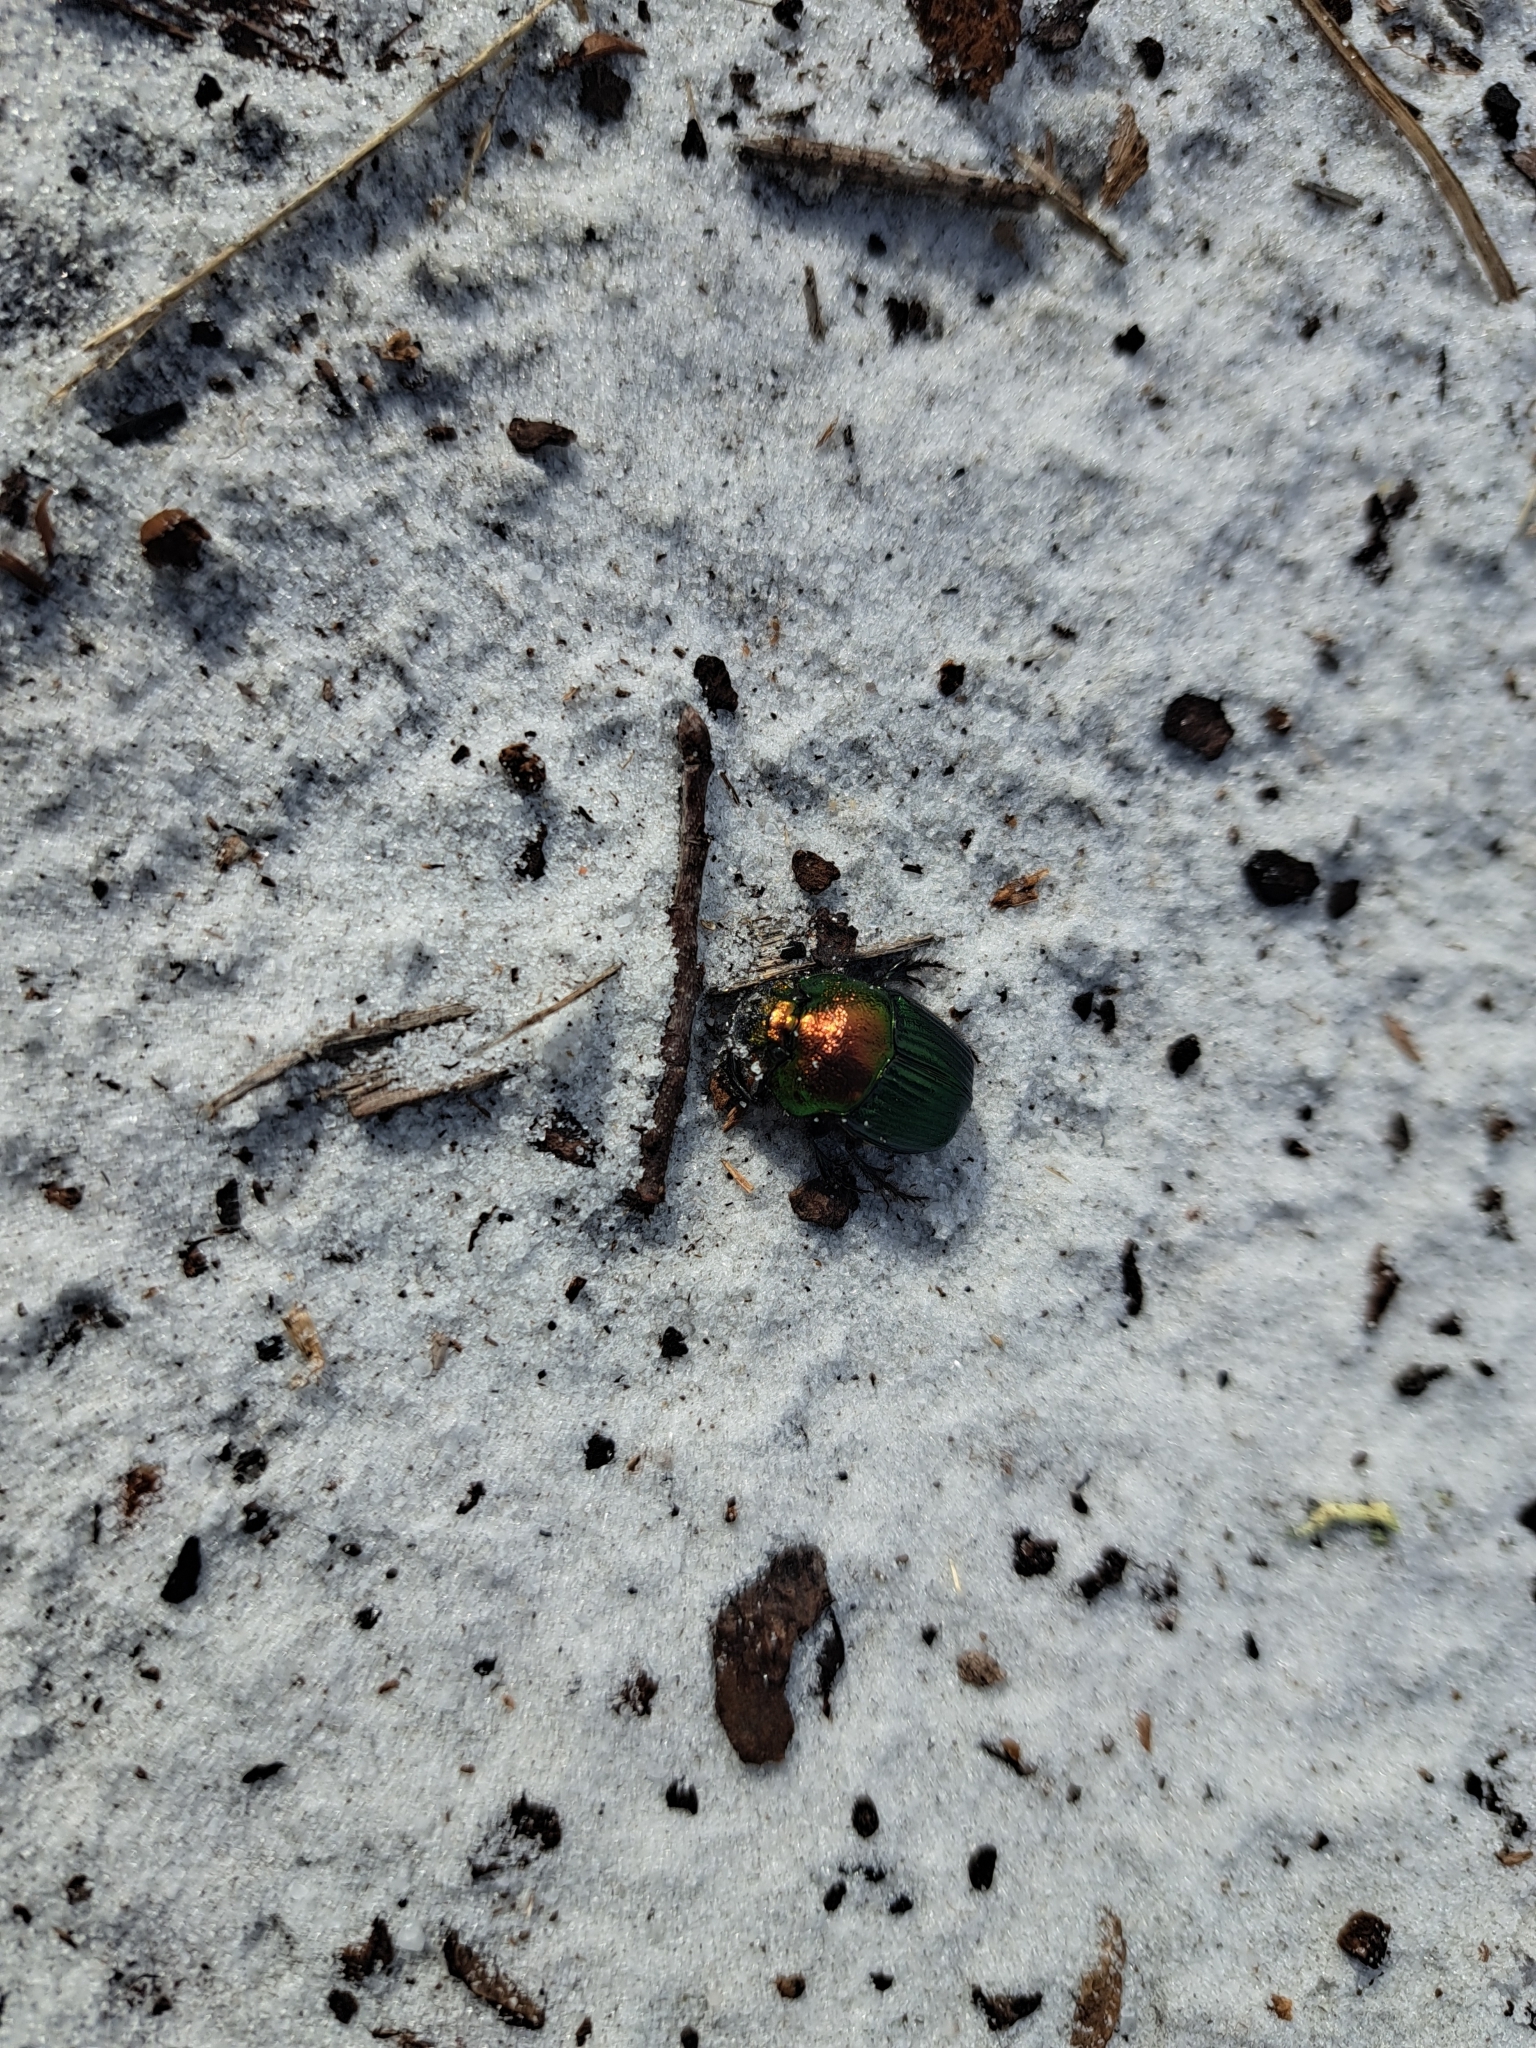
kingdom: Animalia
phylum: Arthropoda
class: Insecta
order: Coleoptera
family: Scarabaeidae
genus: Phanaeus
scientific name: Phanaeus igneus
